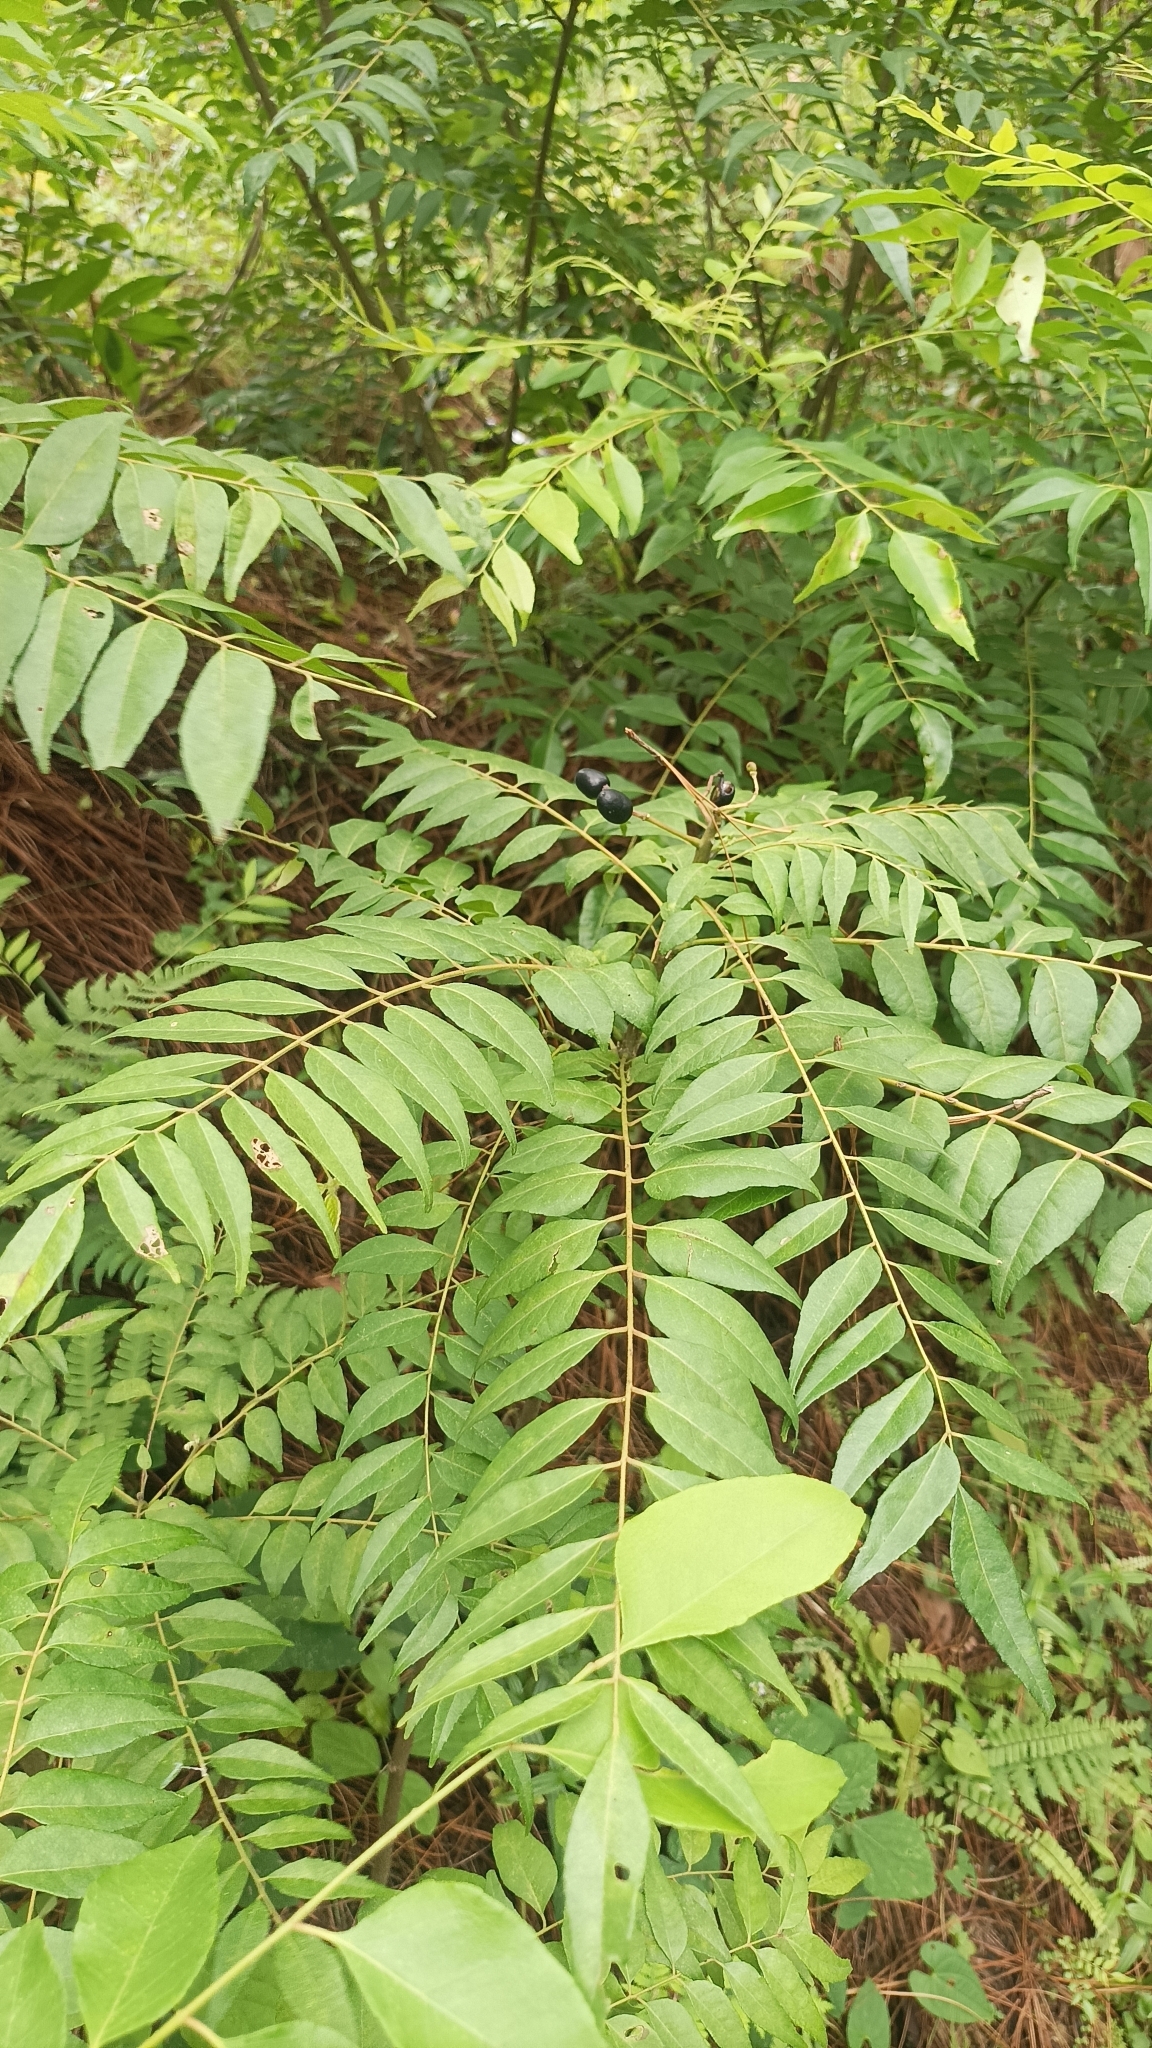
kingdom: Plantae
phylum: Tracheophyta
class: Magnoliopsida
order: Sapindales
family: Rutaceae
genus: Murraya
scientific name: Murraya koenigii
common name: Curry-plant
